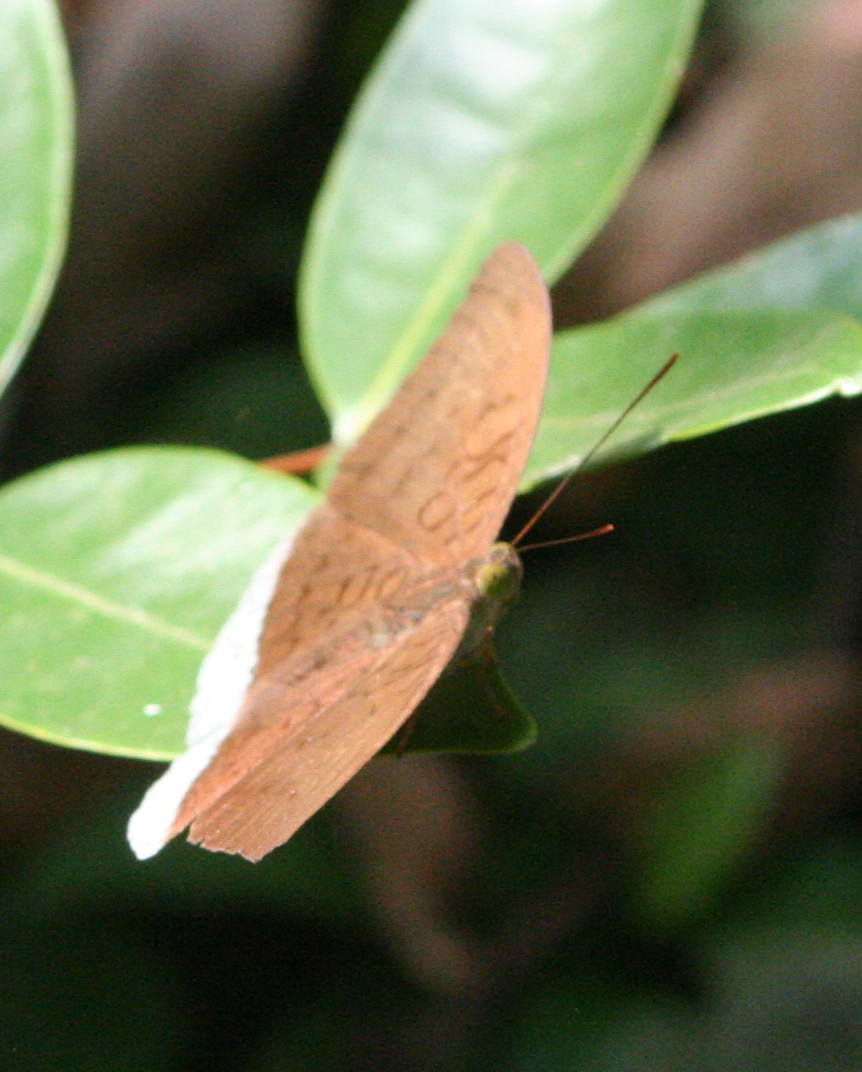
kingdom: Animalia
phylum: Arthropoda
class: Insecta
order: Lepidoptera
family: Nymphalidae
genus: Tanaecia
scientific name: Tanaecia julii
